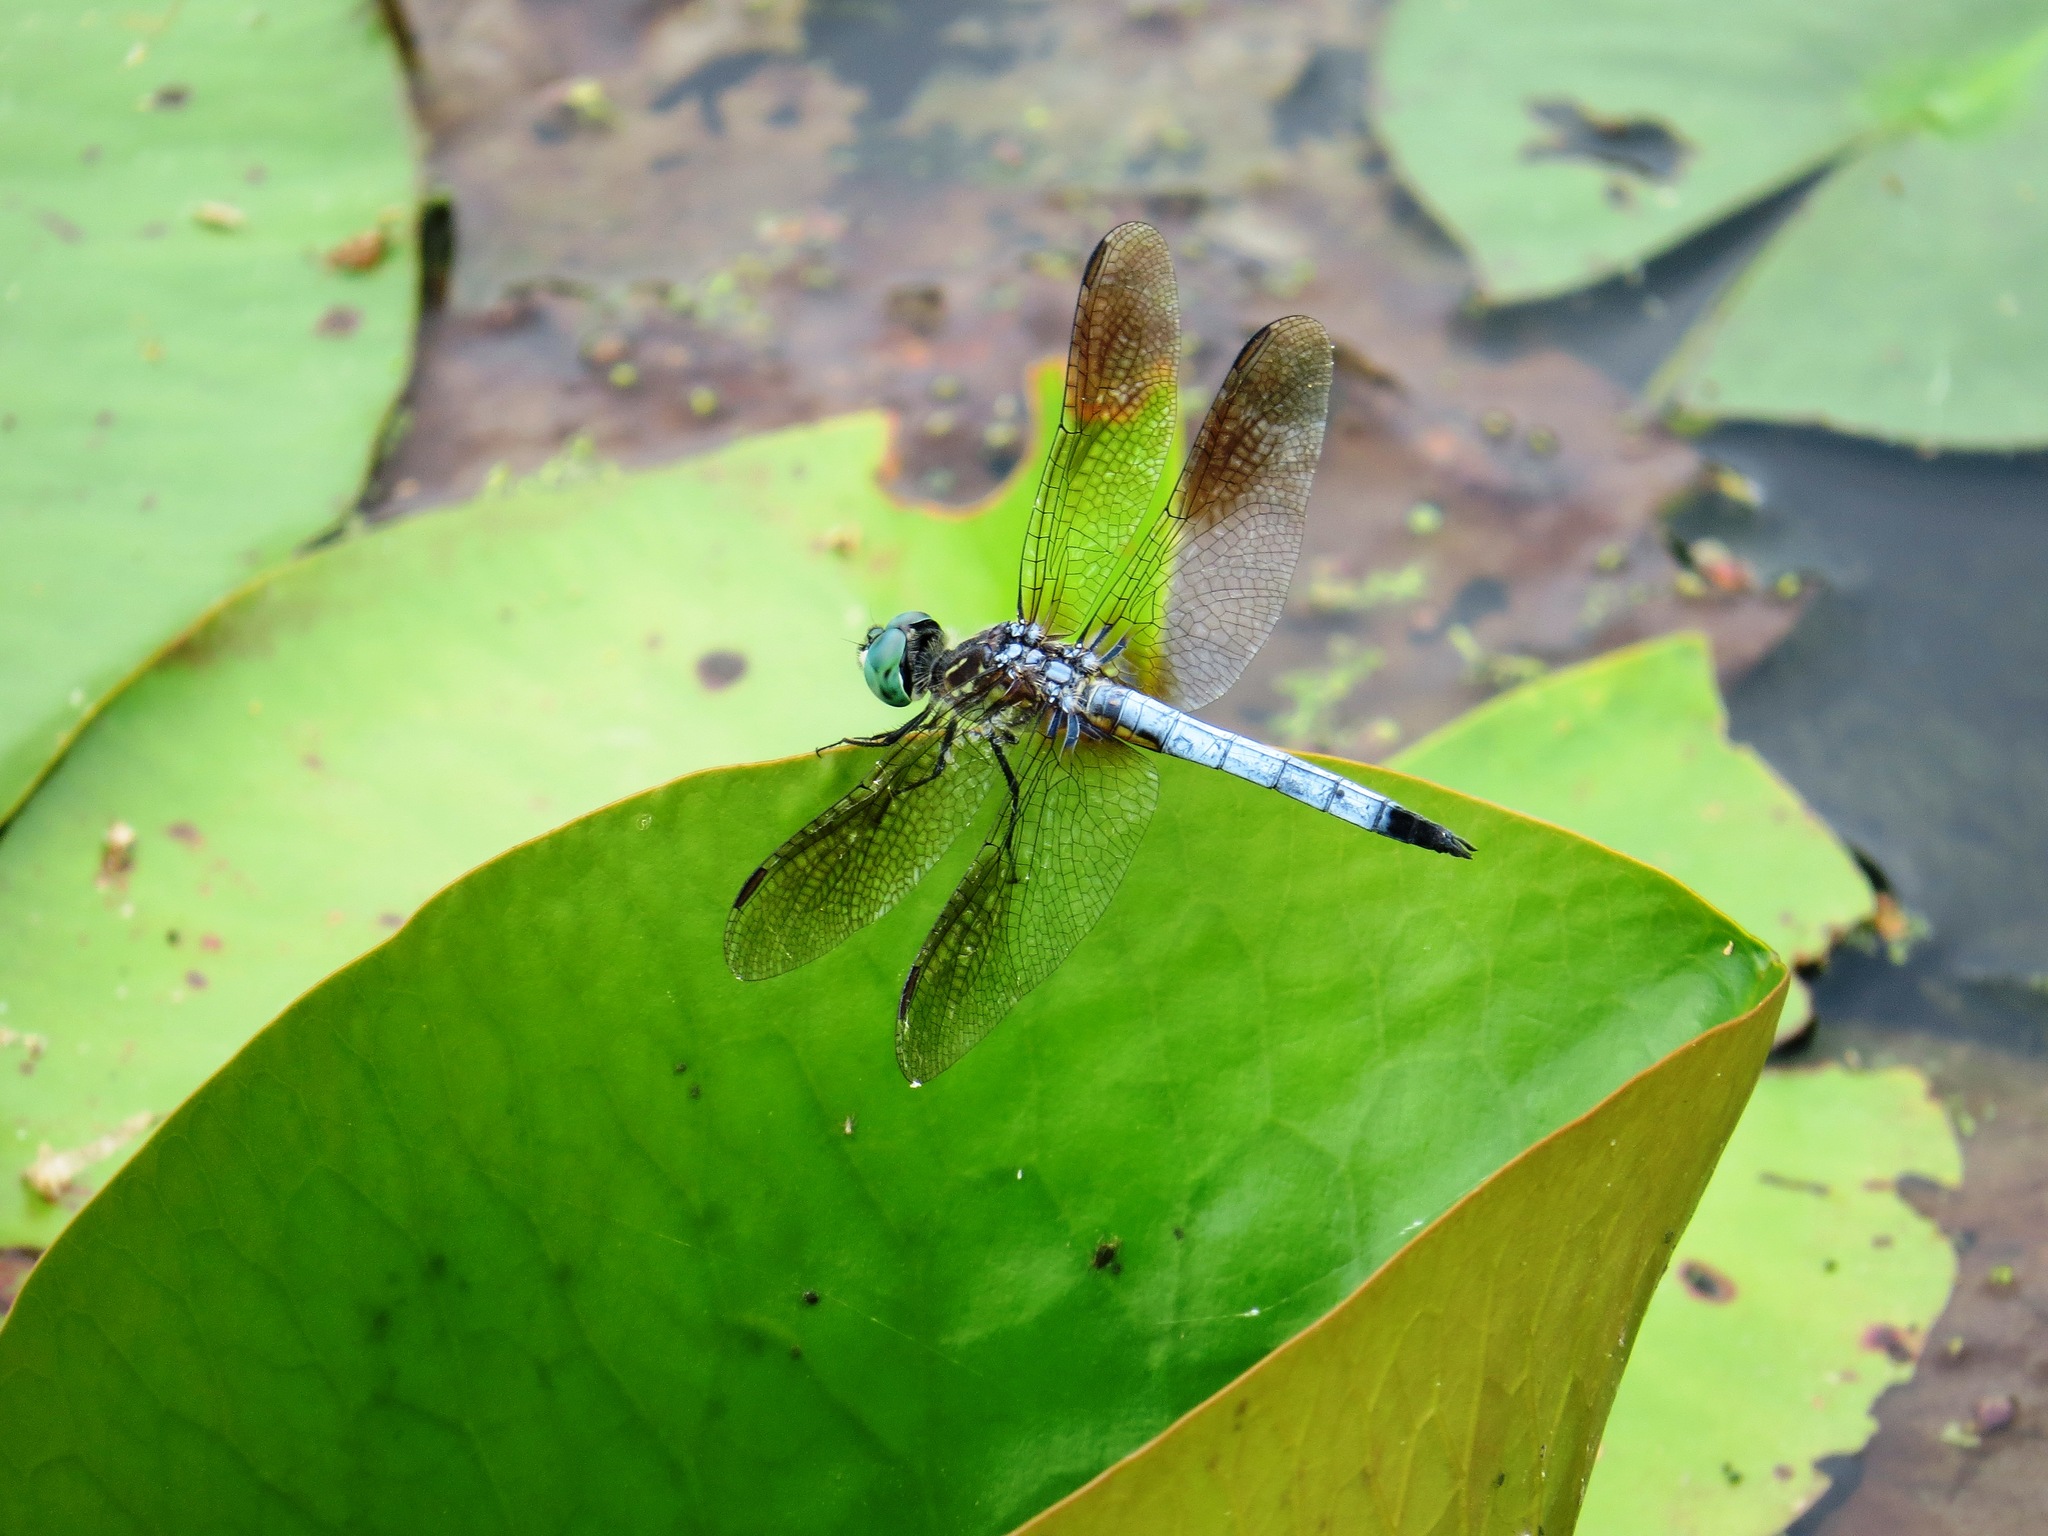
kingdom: Animalia
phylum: Arthropoda
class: Insecta
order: Odonata
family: Libellulidae
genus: Pachydiplax
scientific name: Pachydiplax longipennis
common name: Blue dasher
